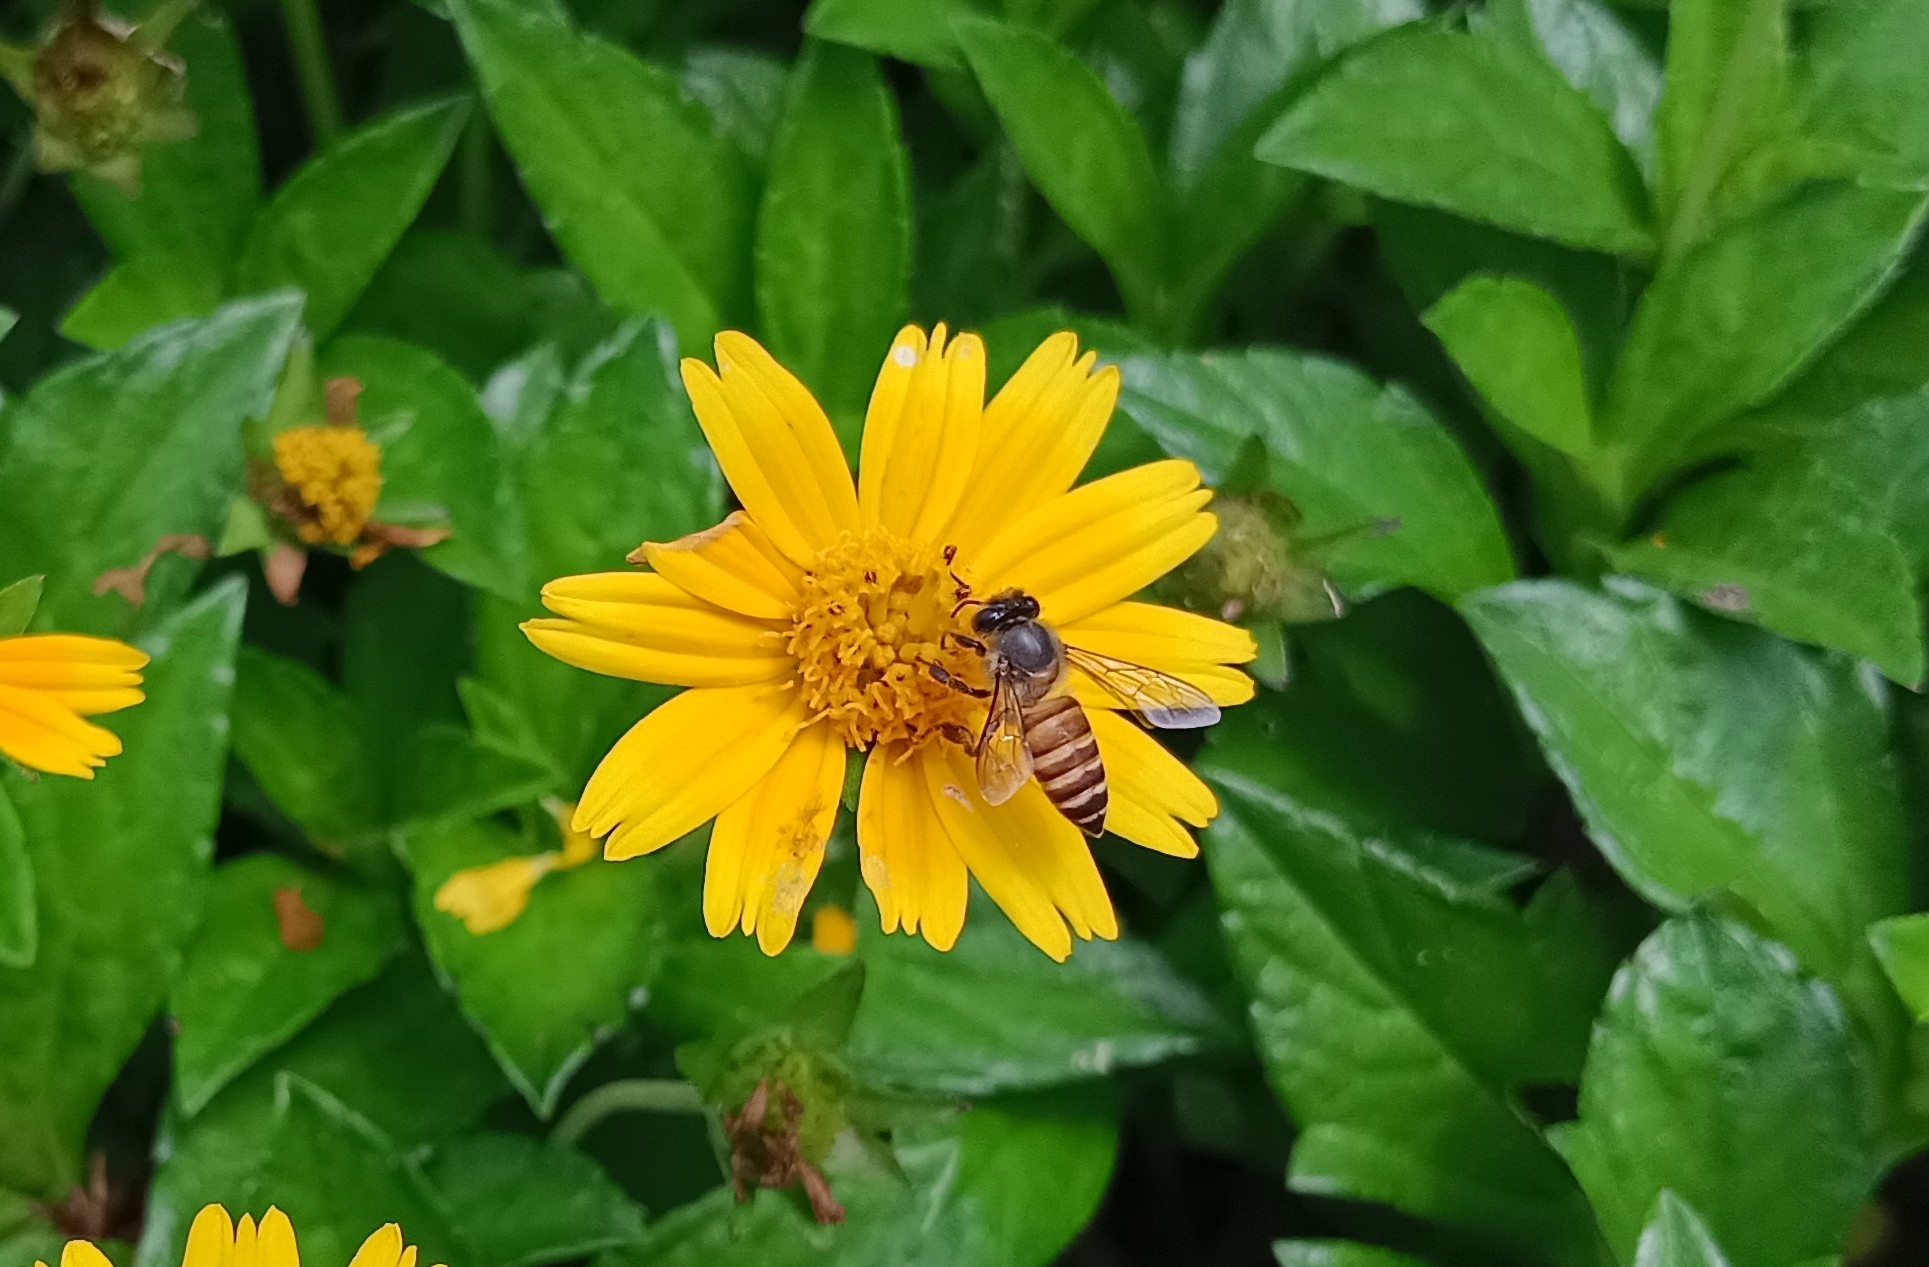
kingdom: Animalia
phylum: Arthropoda
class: Insecta
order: Hymenoptera
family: Apidae
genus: Apis
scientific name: Apis cerana
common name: Honey bee
